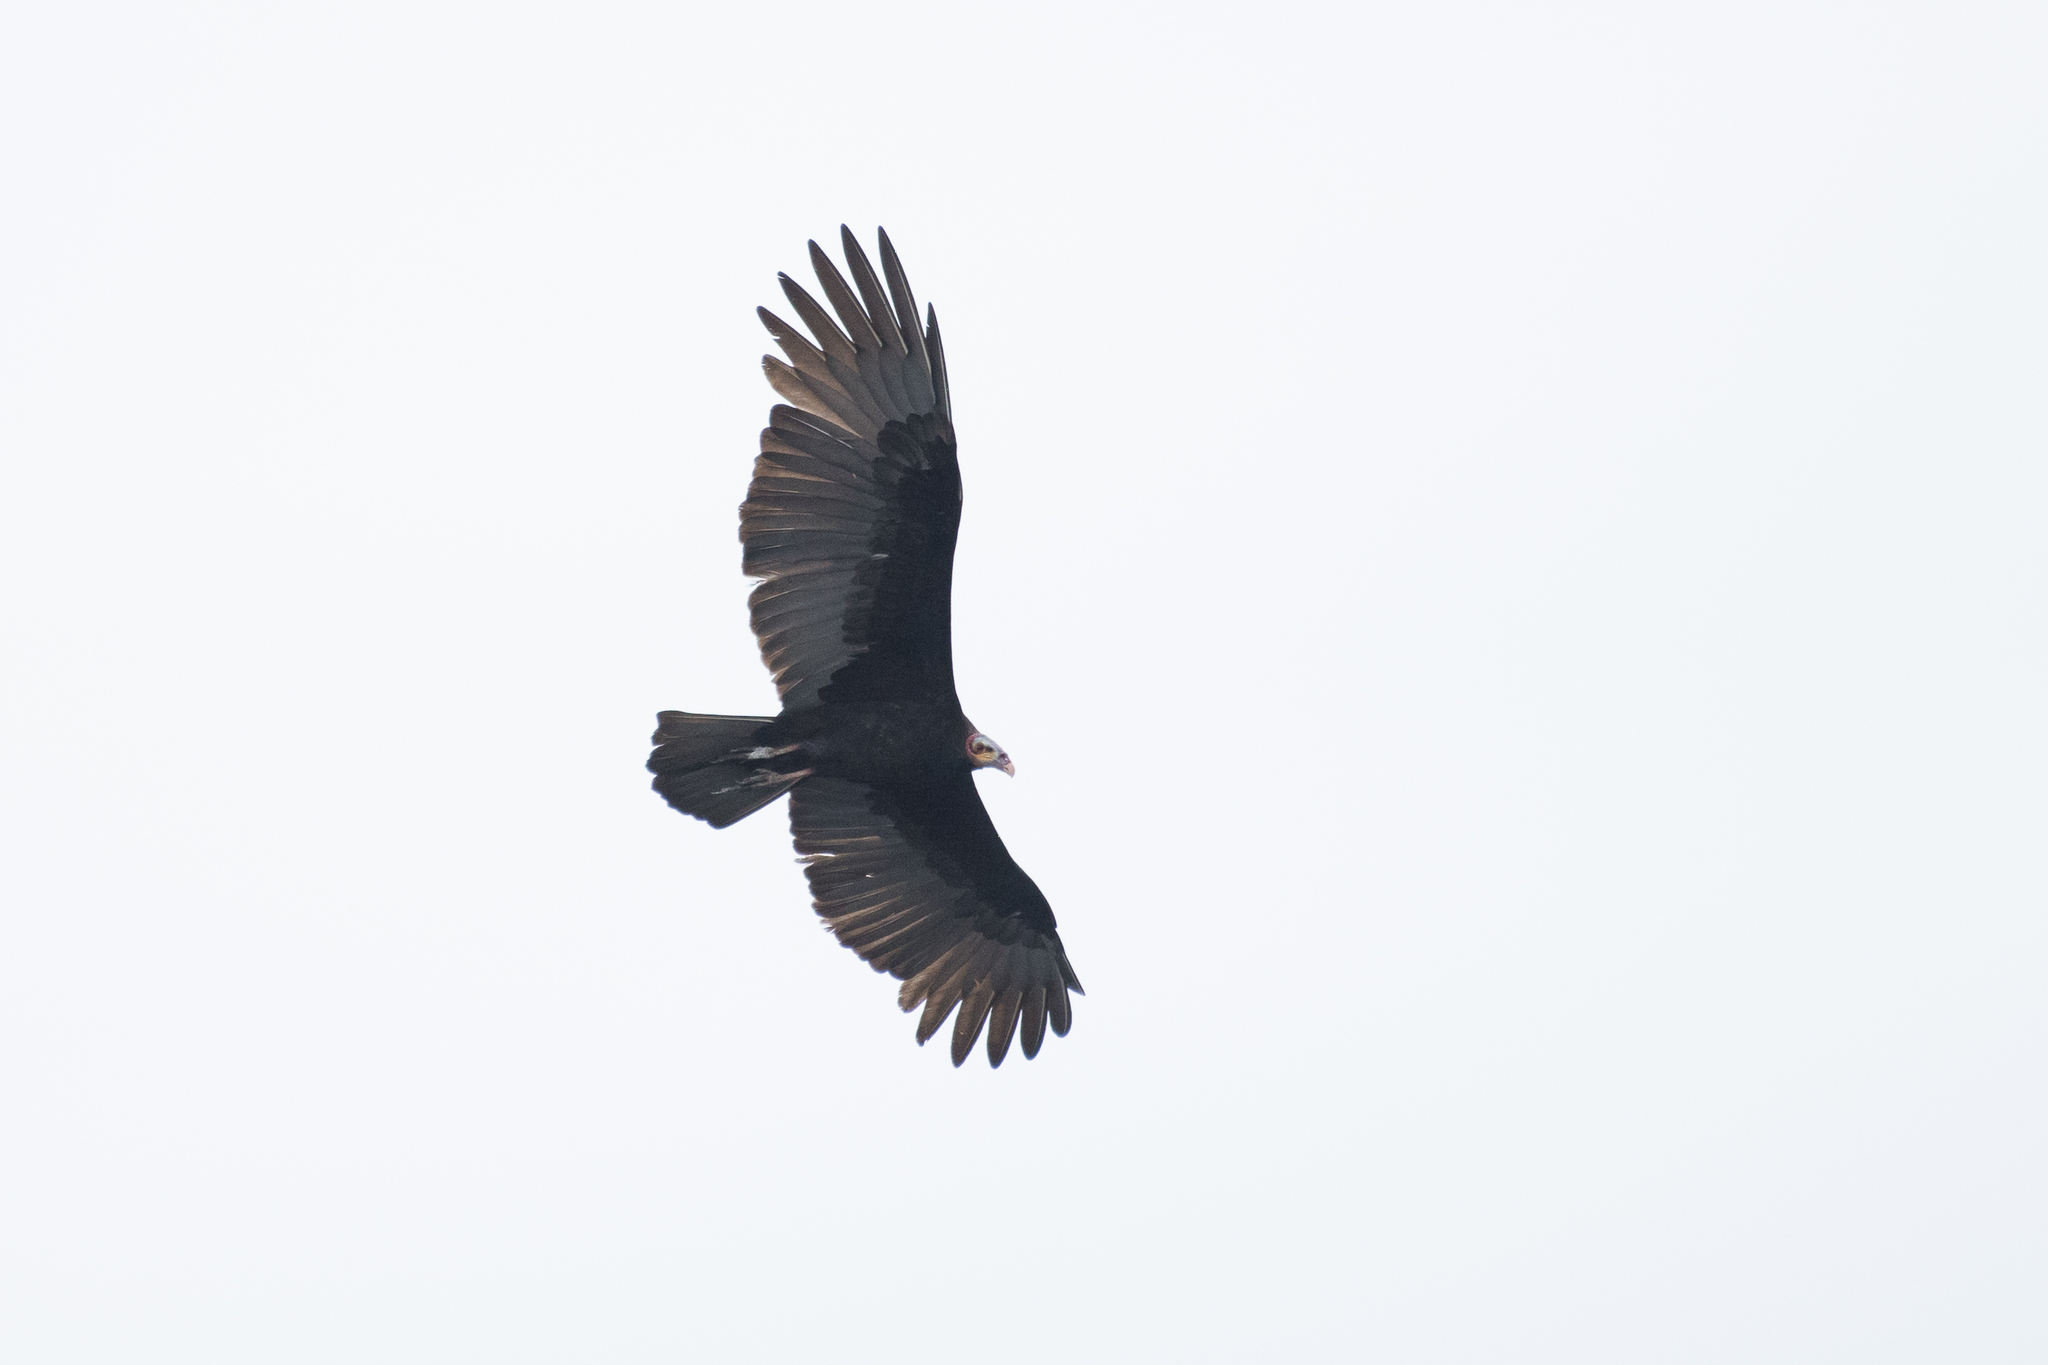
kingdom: Animalia
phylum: Chordata
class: Aves
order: Accipitriformes
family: Cathartidae
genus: Cathartes
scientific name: Cathartes burrovianus
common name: Lesser yellow-headed vulture
